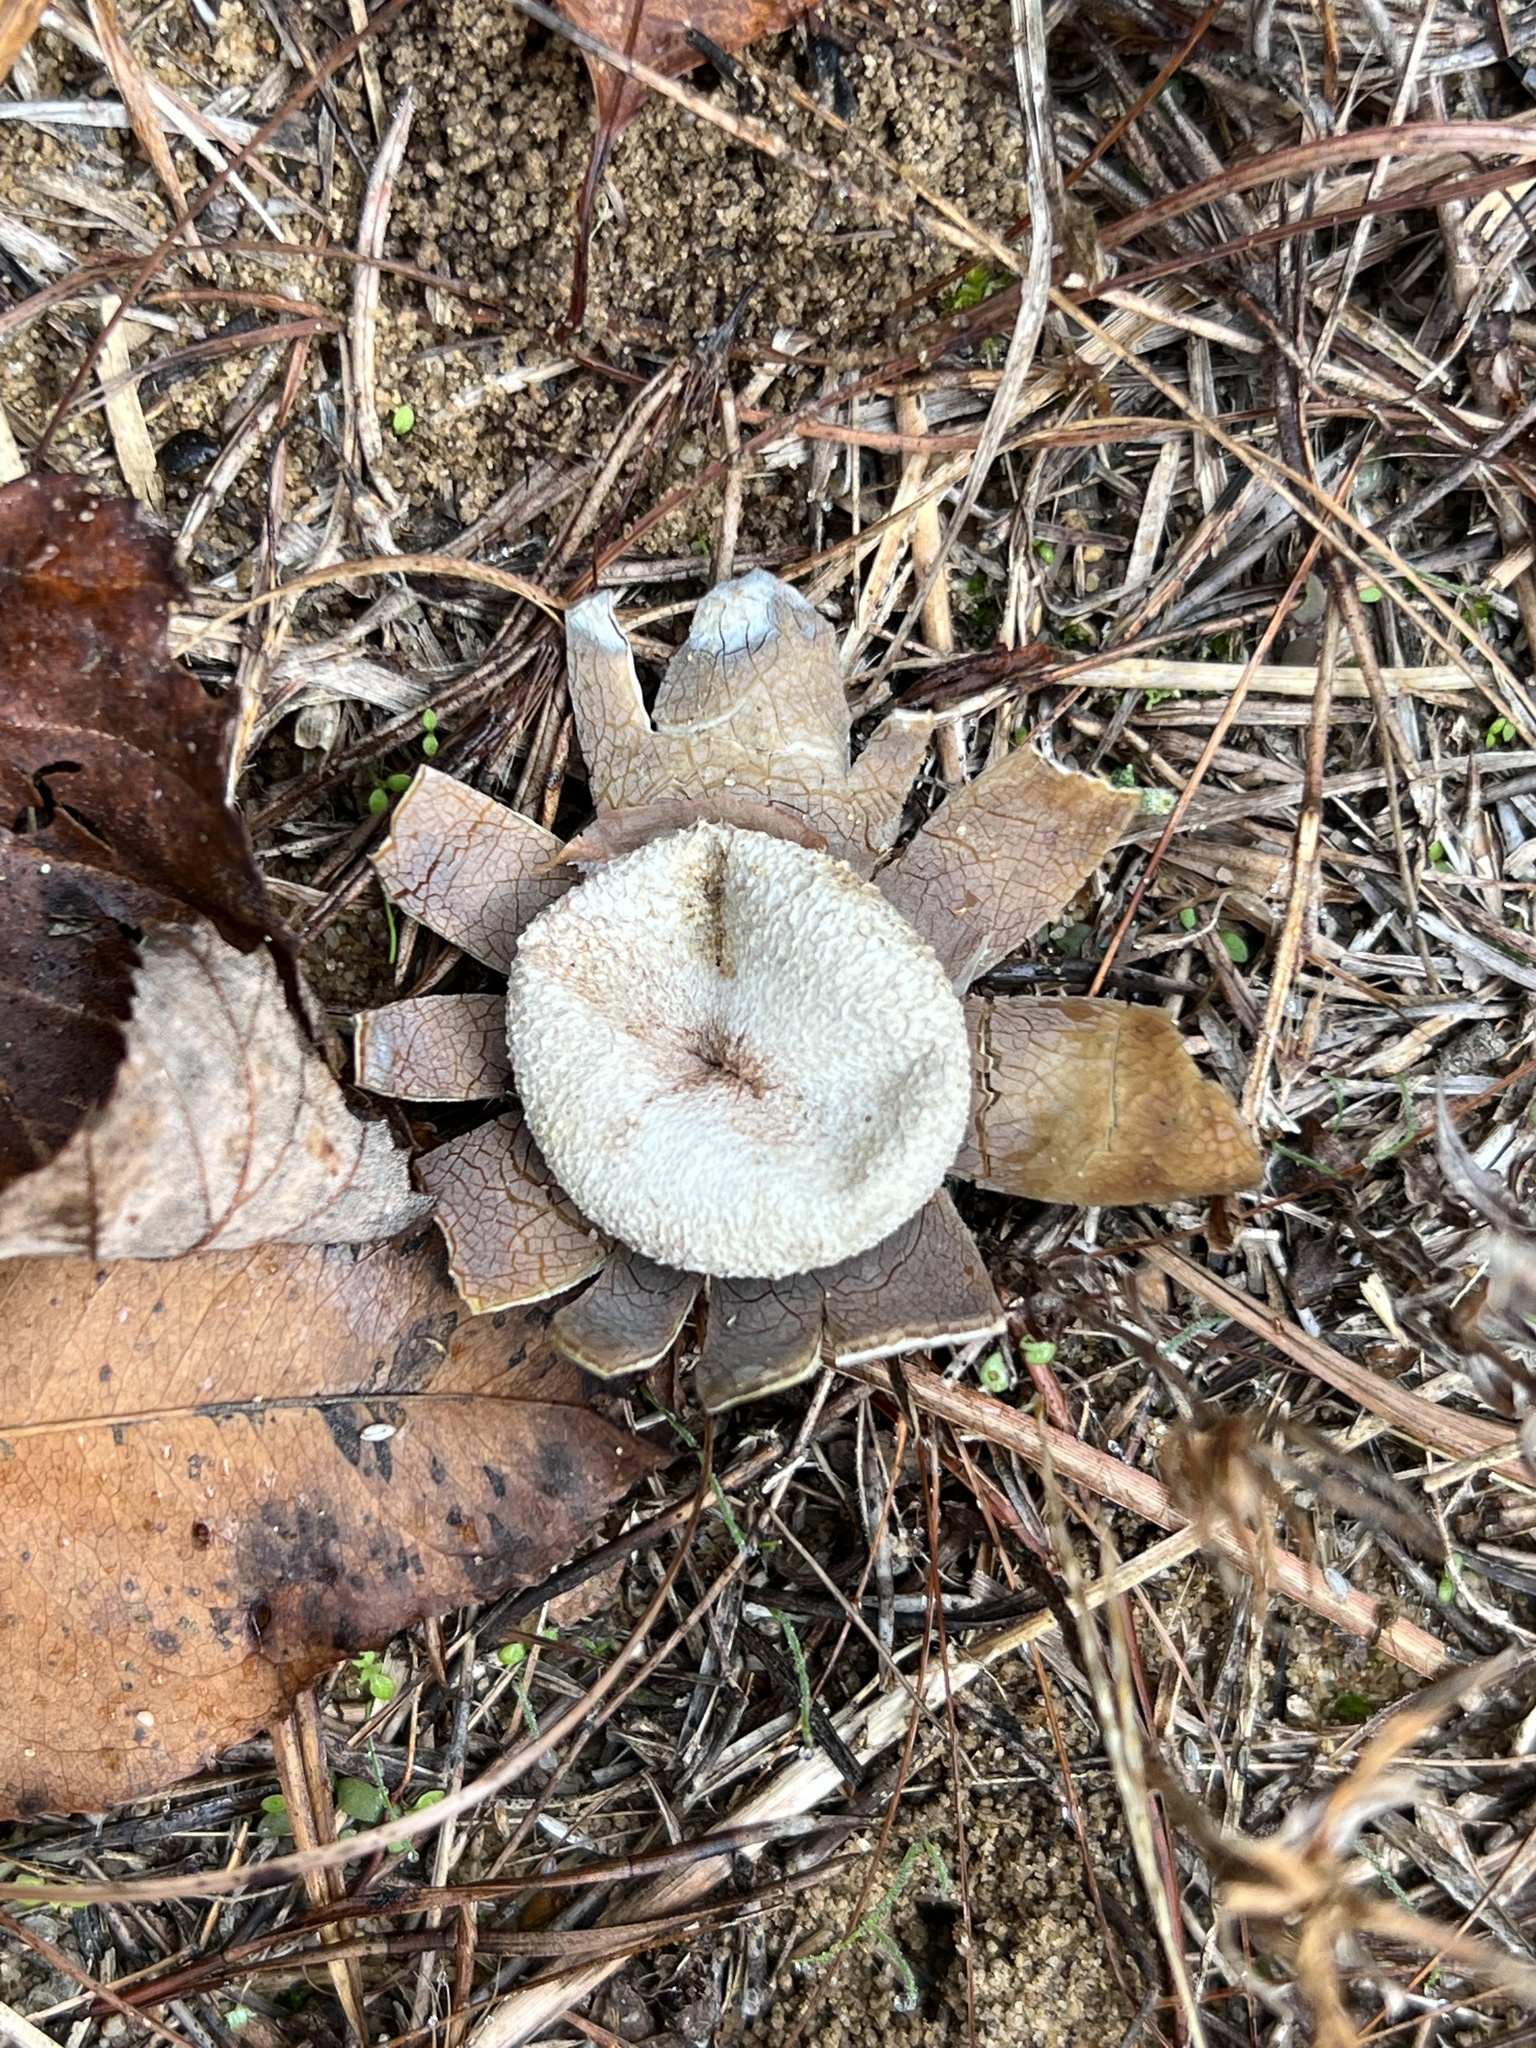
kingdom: Fungi
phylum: Basidiomycota
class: Agaricomycetes
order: Boletales
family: Diplocystidiaceae
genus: Astraeus
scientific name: Astraeus smithii
